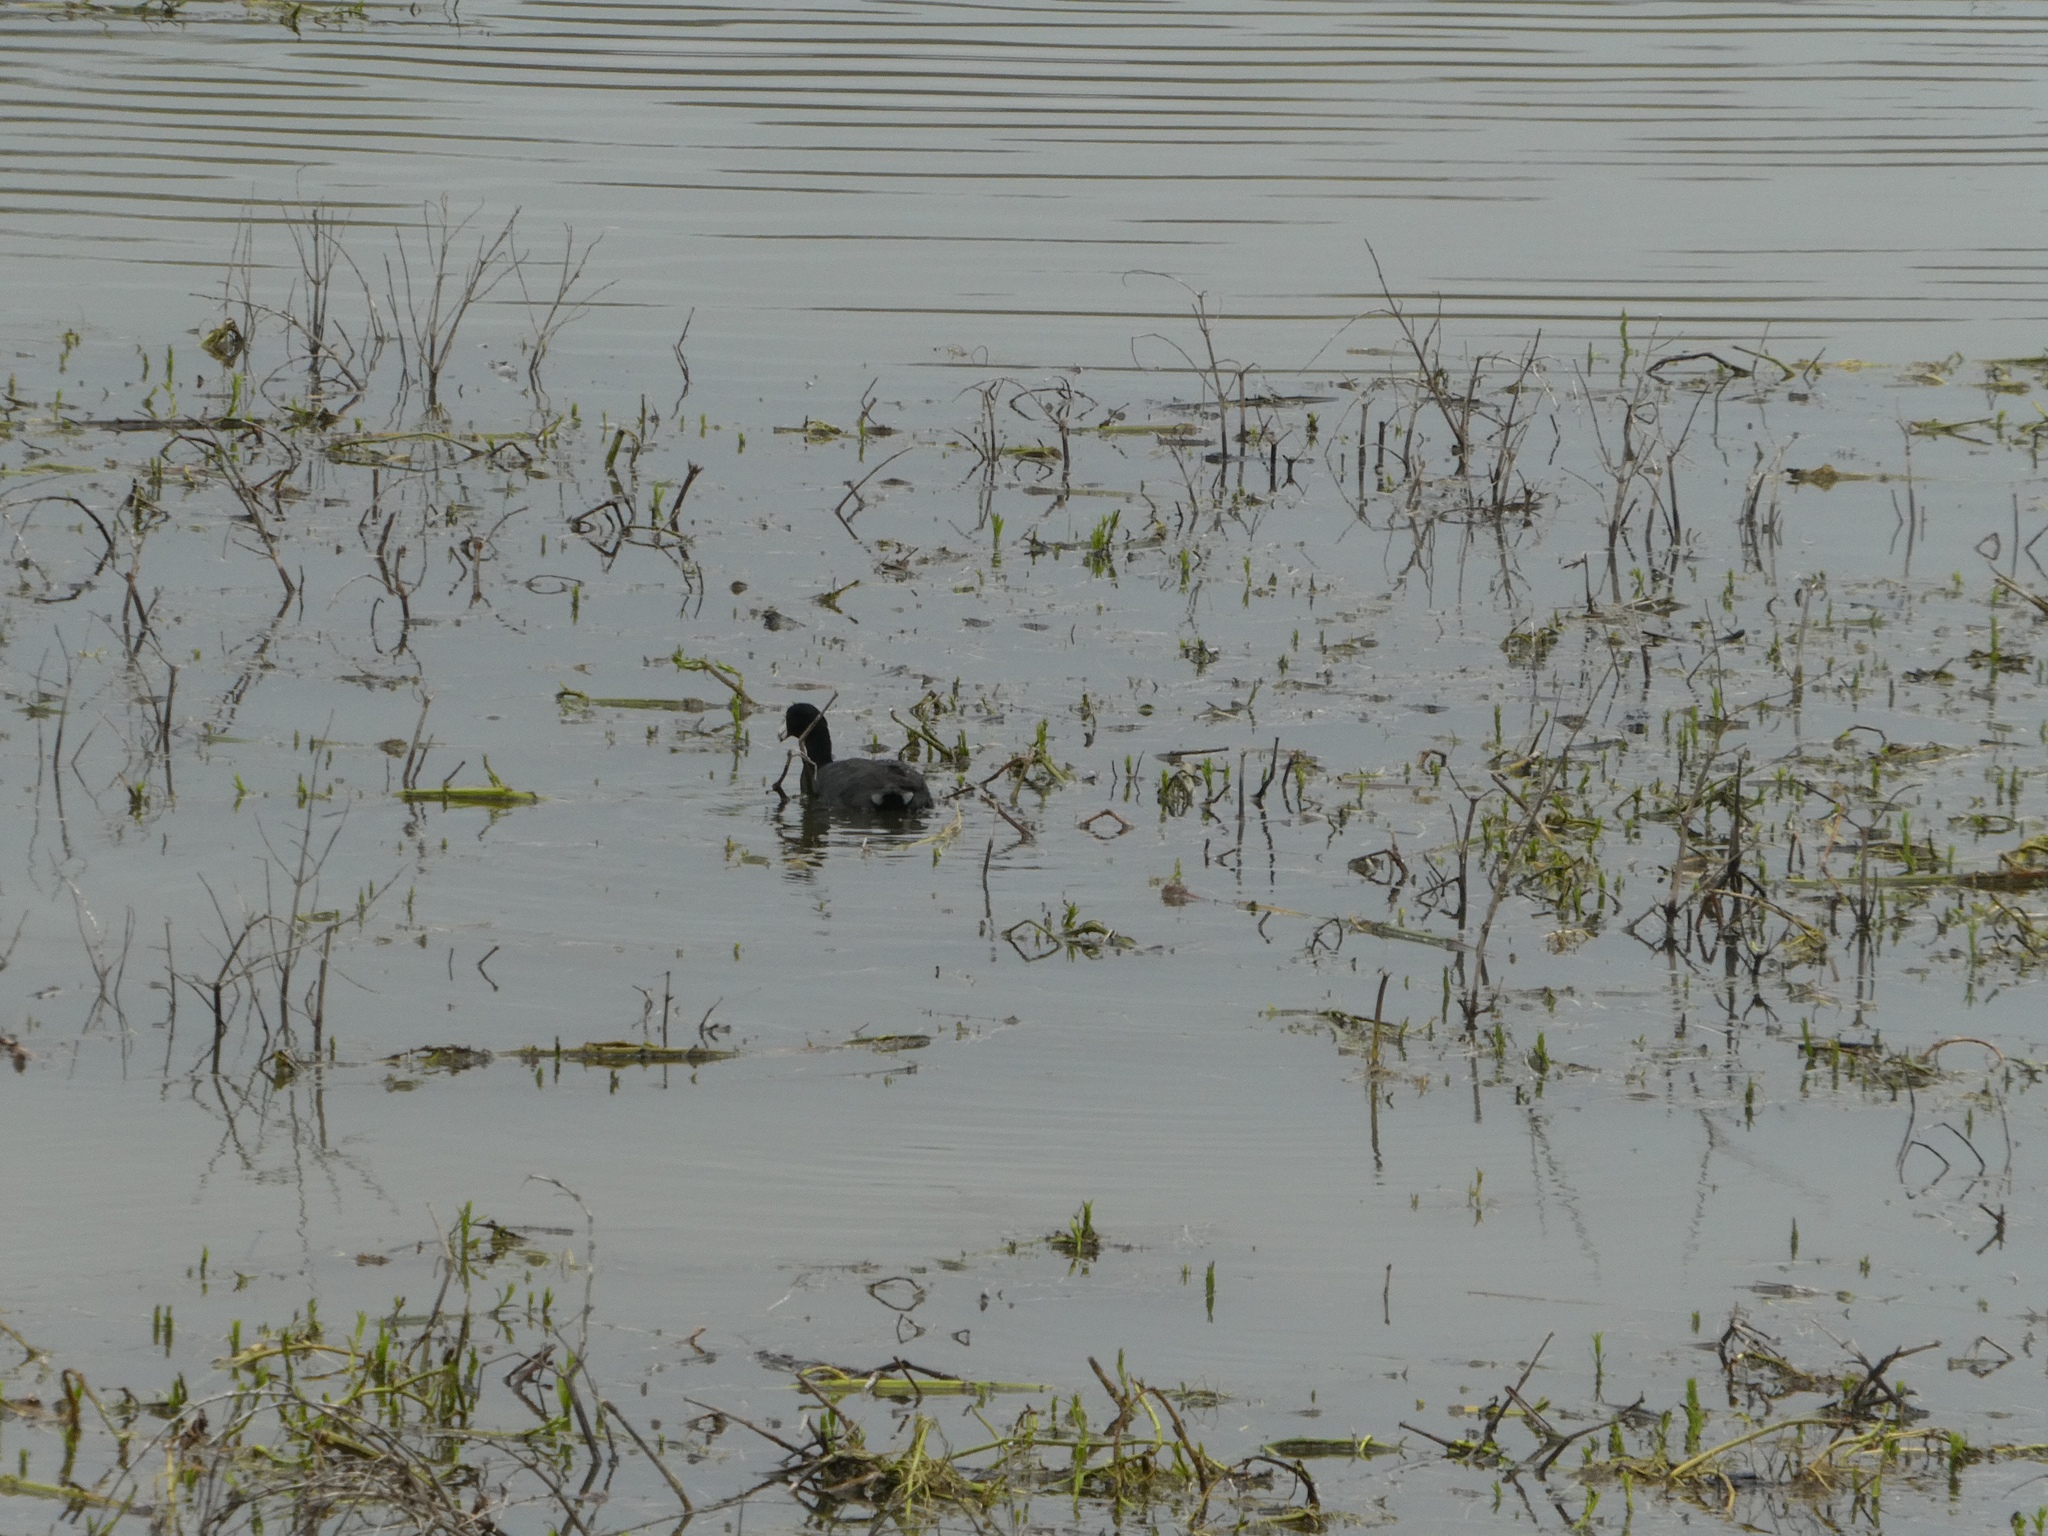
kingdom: Animalia
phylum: Chordata
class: Aves
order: Gruiformes
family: Rallidae
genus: Fulica
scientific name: Fulica americana
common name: American coot
